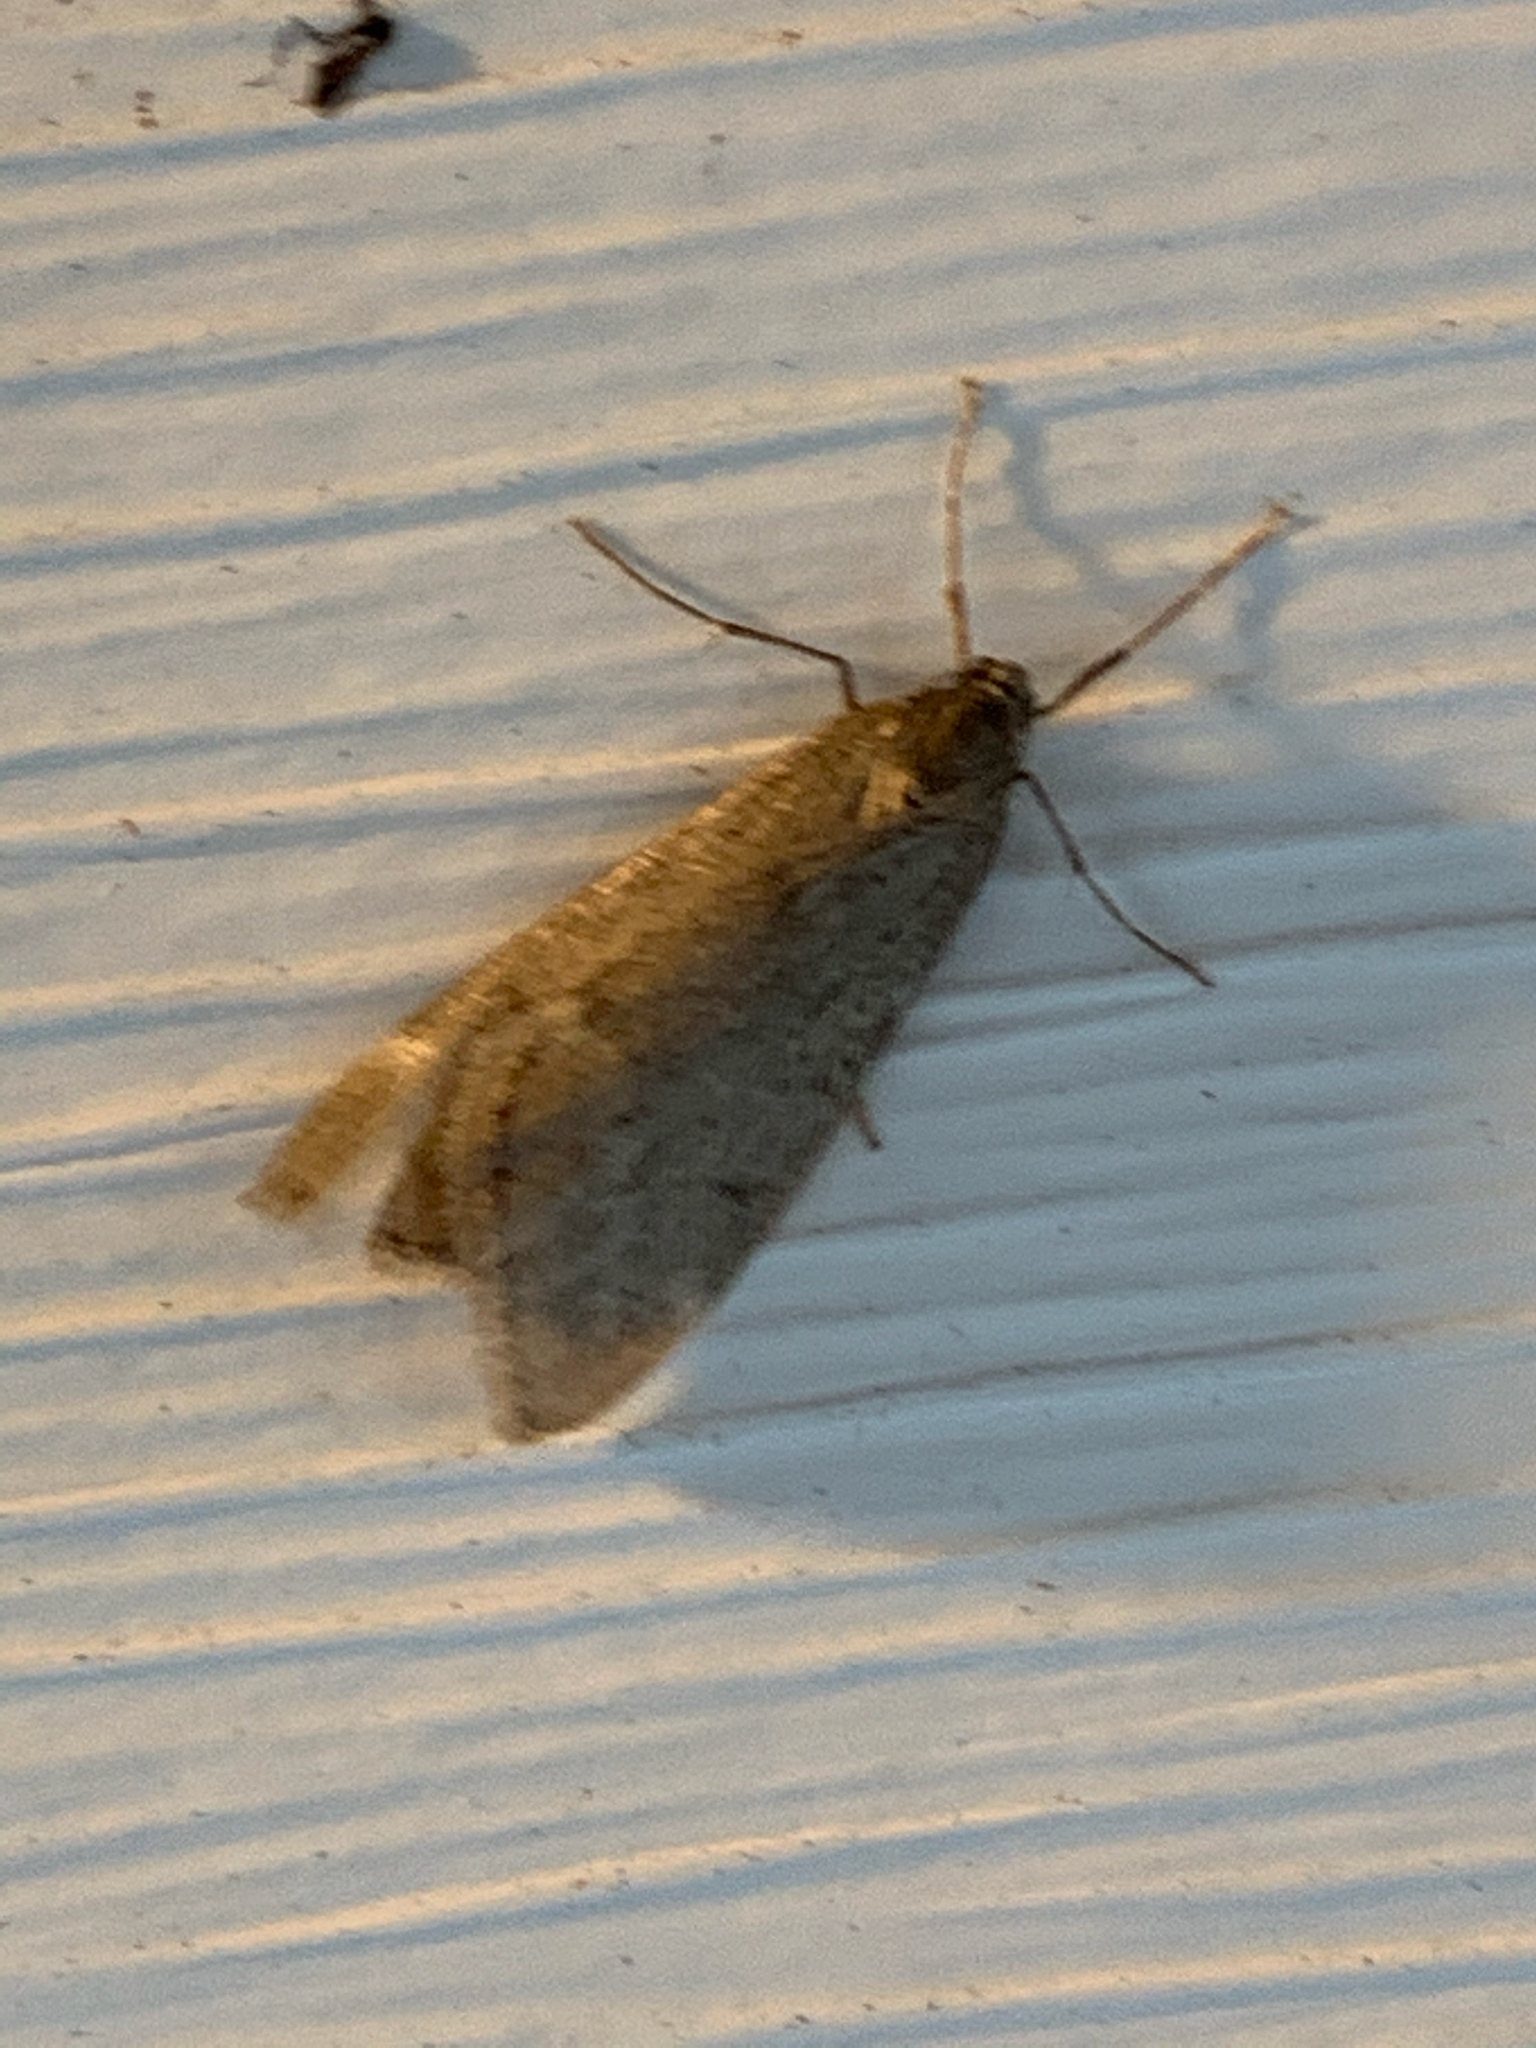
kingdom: Animalia
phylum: Arthropoda
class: Insecta
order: Lepidoptera
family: Geometridae
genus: Alsophila
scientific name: Alsophila pometaria
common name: Fall cankerworm
